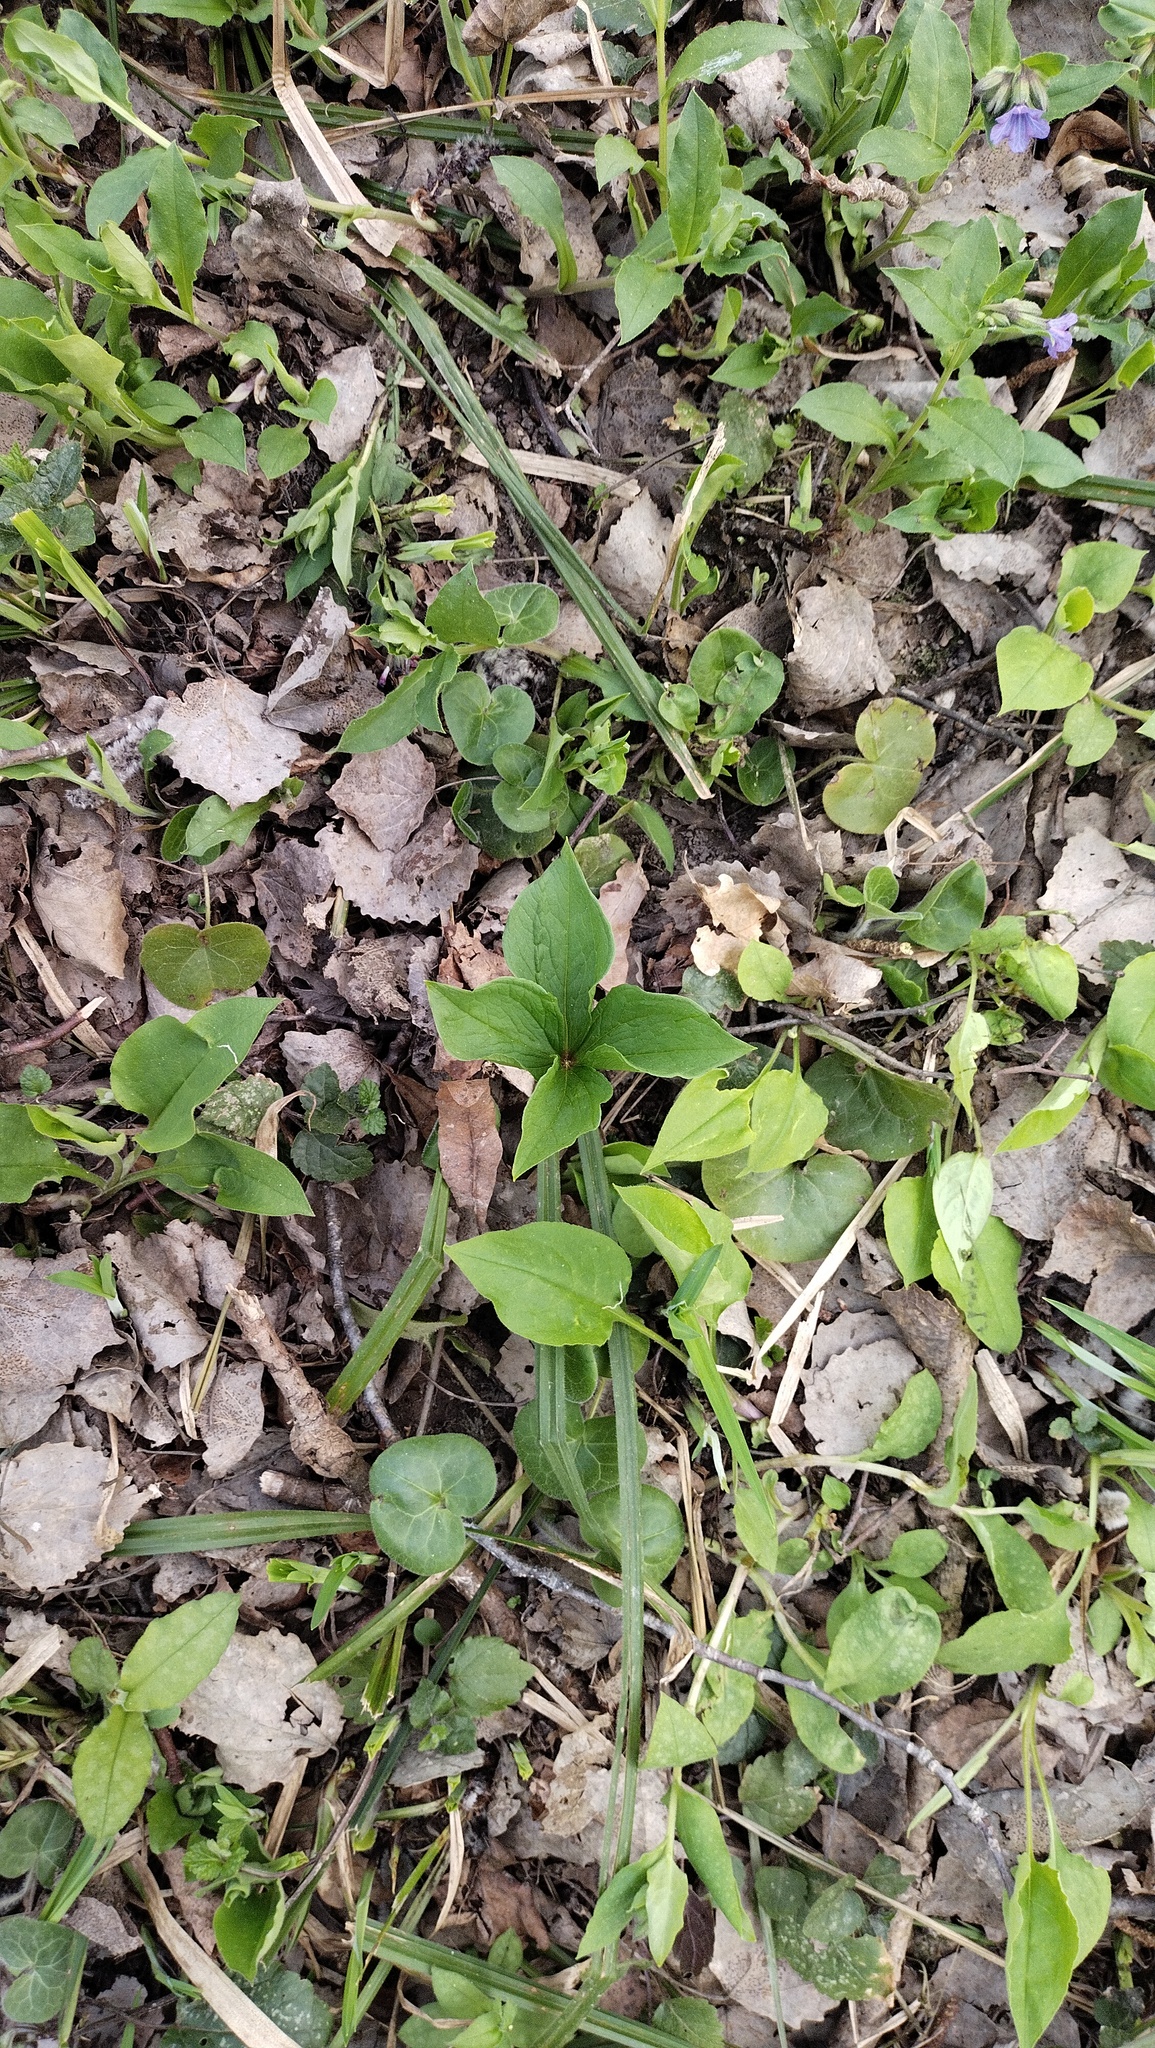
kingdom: Plantae
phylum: Tracheophyta
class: Liliopsida
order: Liliales
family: Melanthiaceae
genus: Paris
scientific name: Paris quadrifolia
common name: Herb-paris
